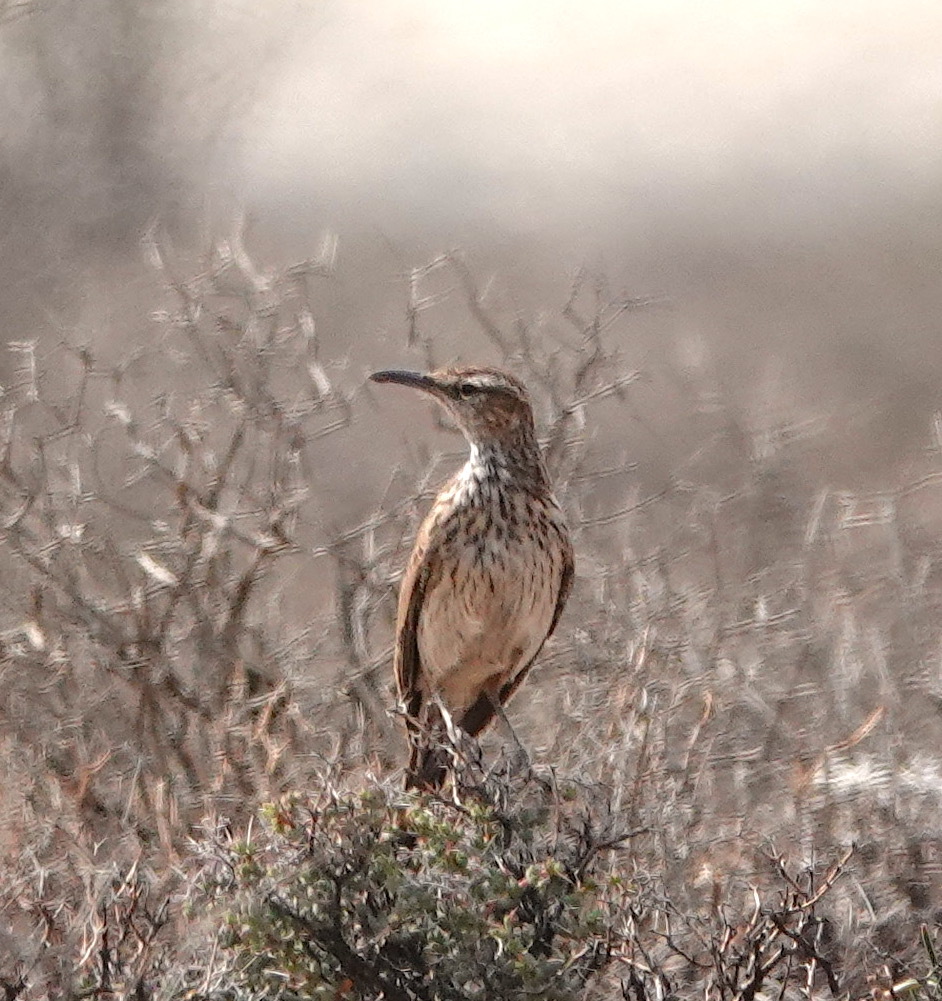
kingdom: Animalia
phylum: Chordata
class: Aves
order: Passeriformes
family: Alaudidae
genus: Certhilauda
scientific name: Certhilauda subcoronata
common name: Karoo long-billed lark
